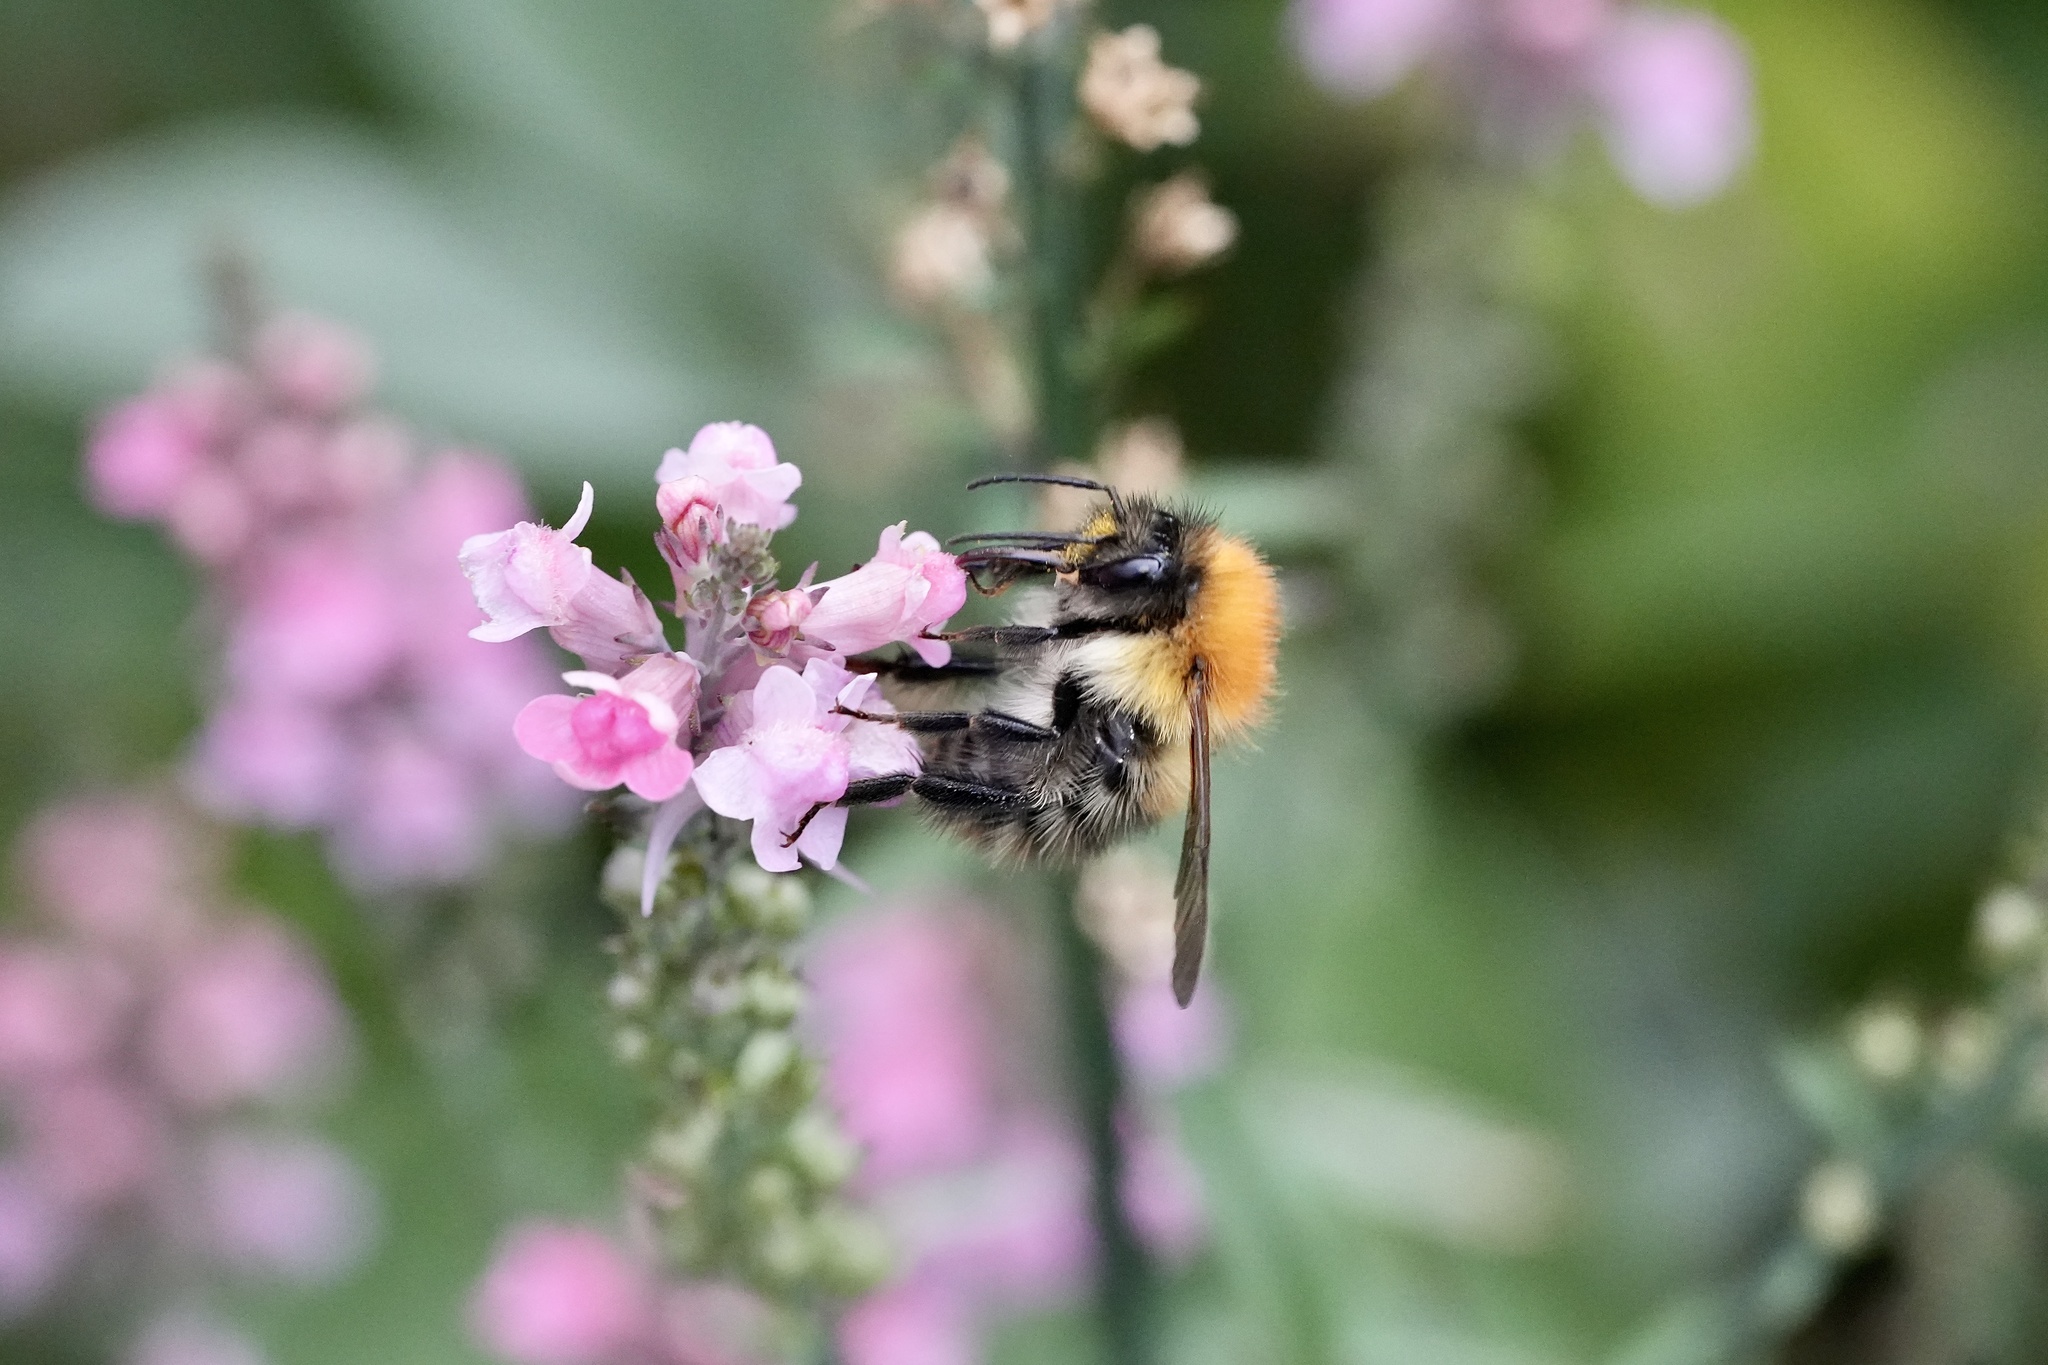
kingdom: Animalia
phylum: Arthropoda
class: Insecta
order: Hymenoptera
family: Apidae
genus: Bombus
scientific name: Bombus pascuorum
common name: Common carder bee
